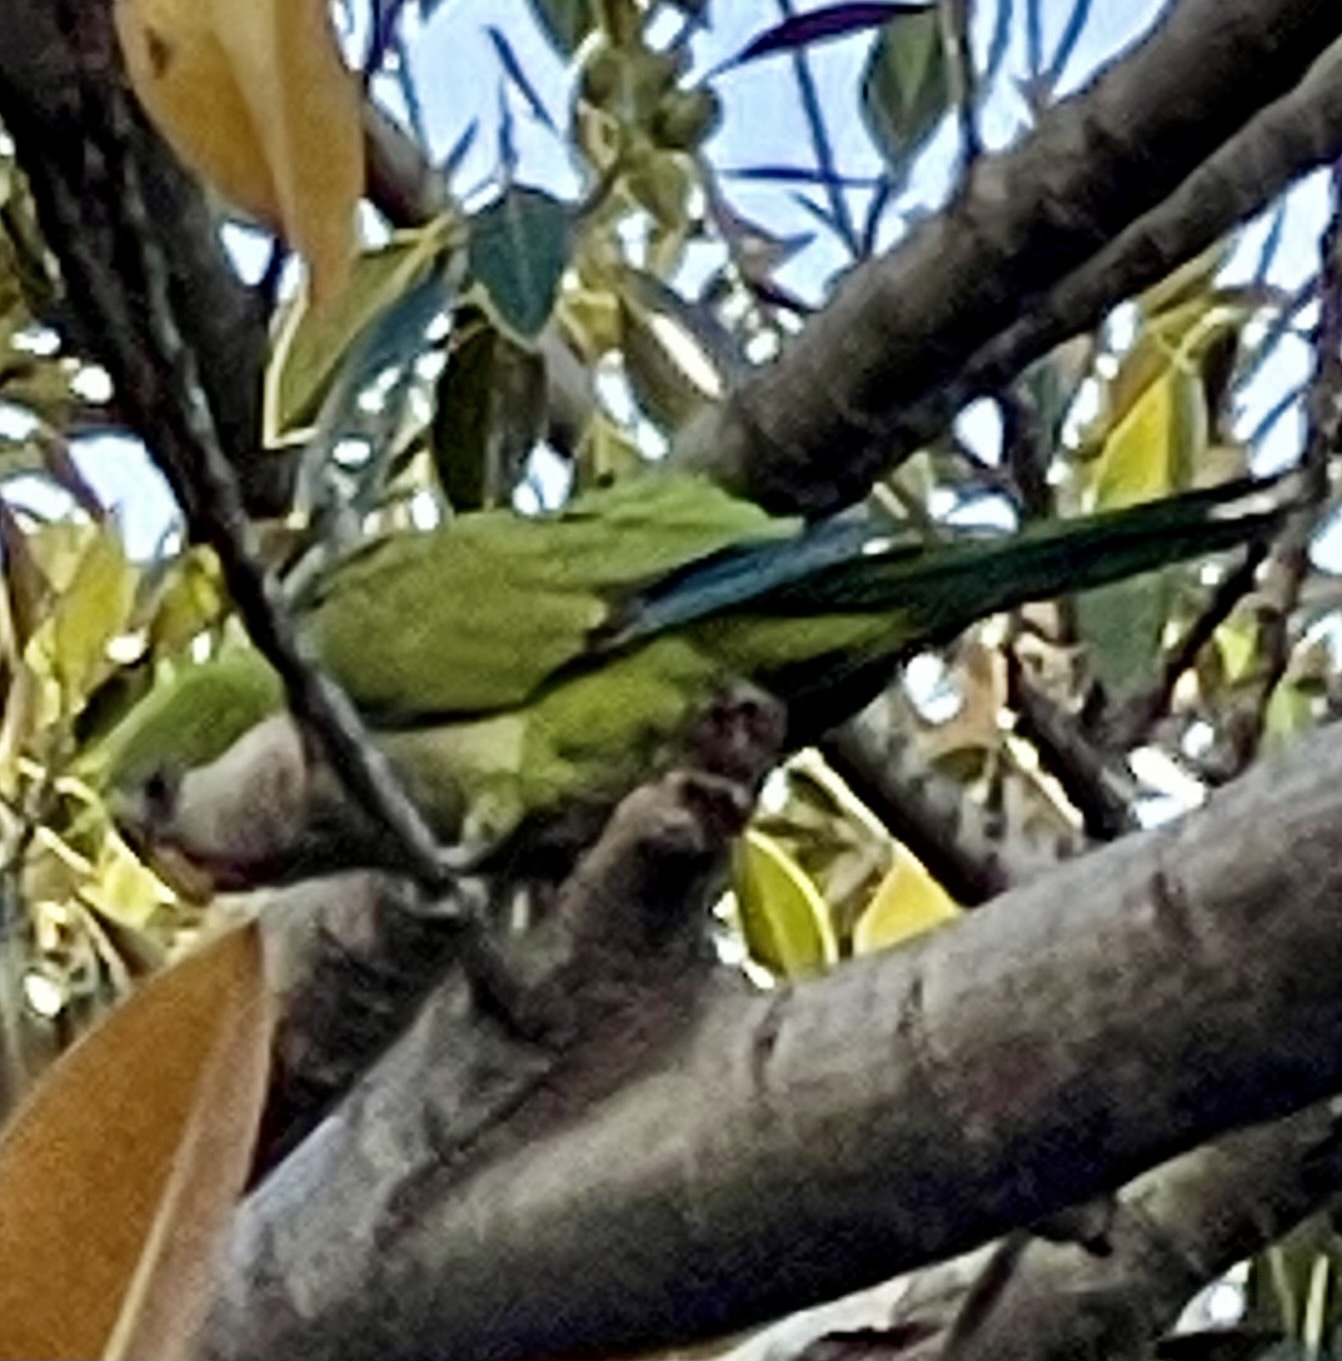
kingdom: Animalia
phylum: Chordata
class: Aves
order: Psittaciformes
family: Psittacidae
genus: Myiopsitta
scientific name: Myiopsitta monachus
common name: Monk parakeet
